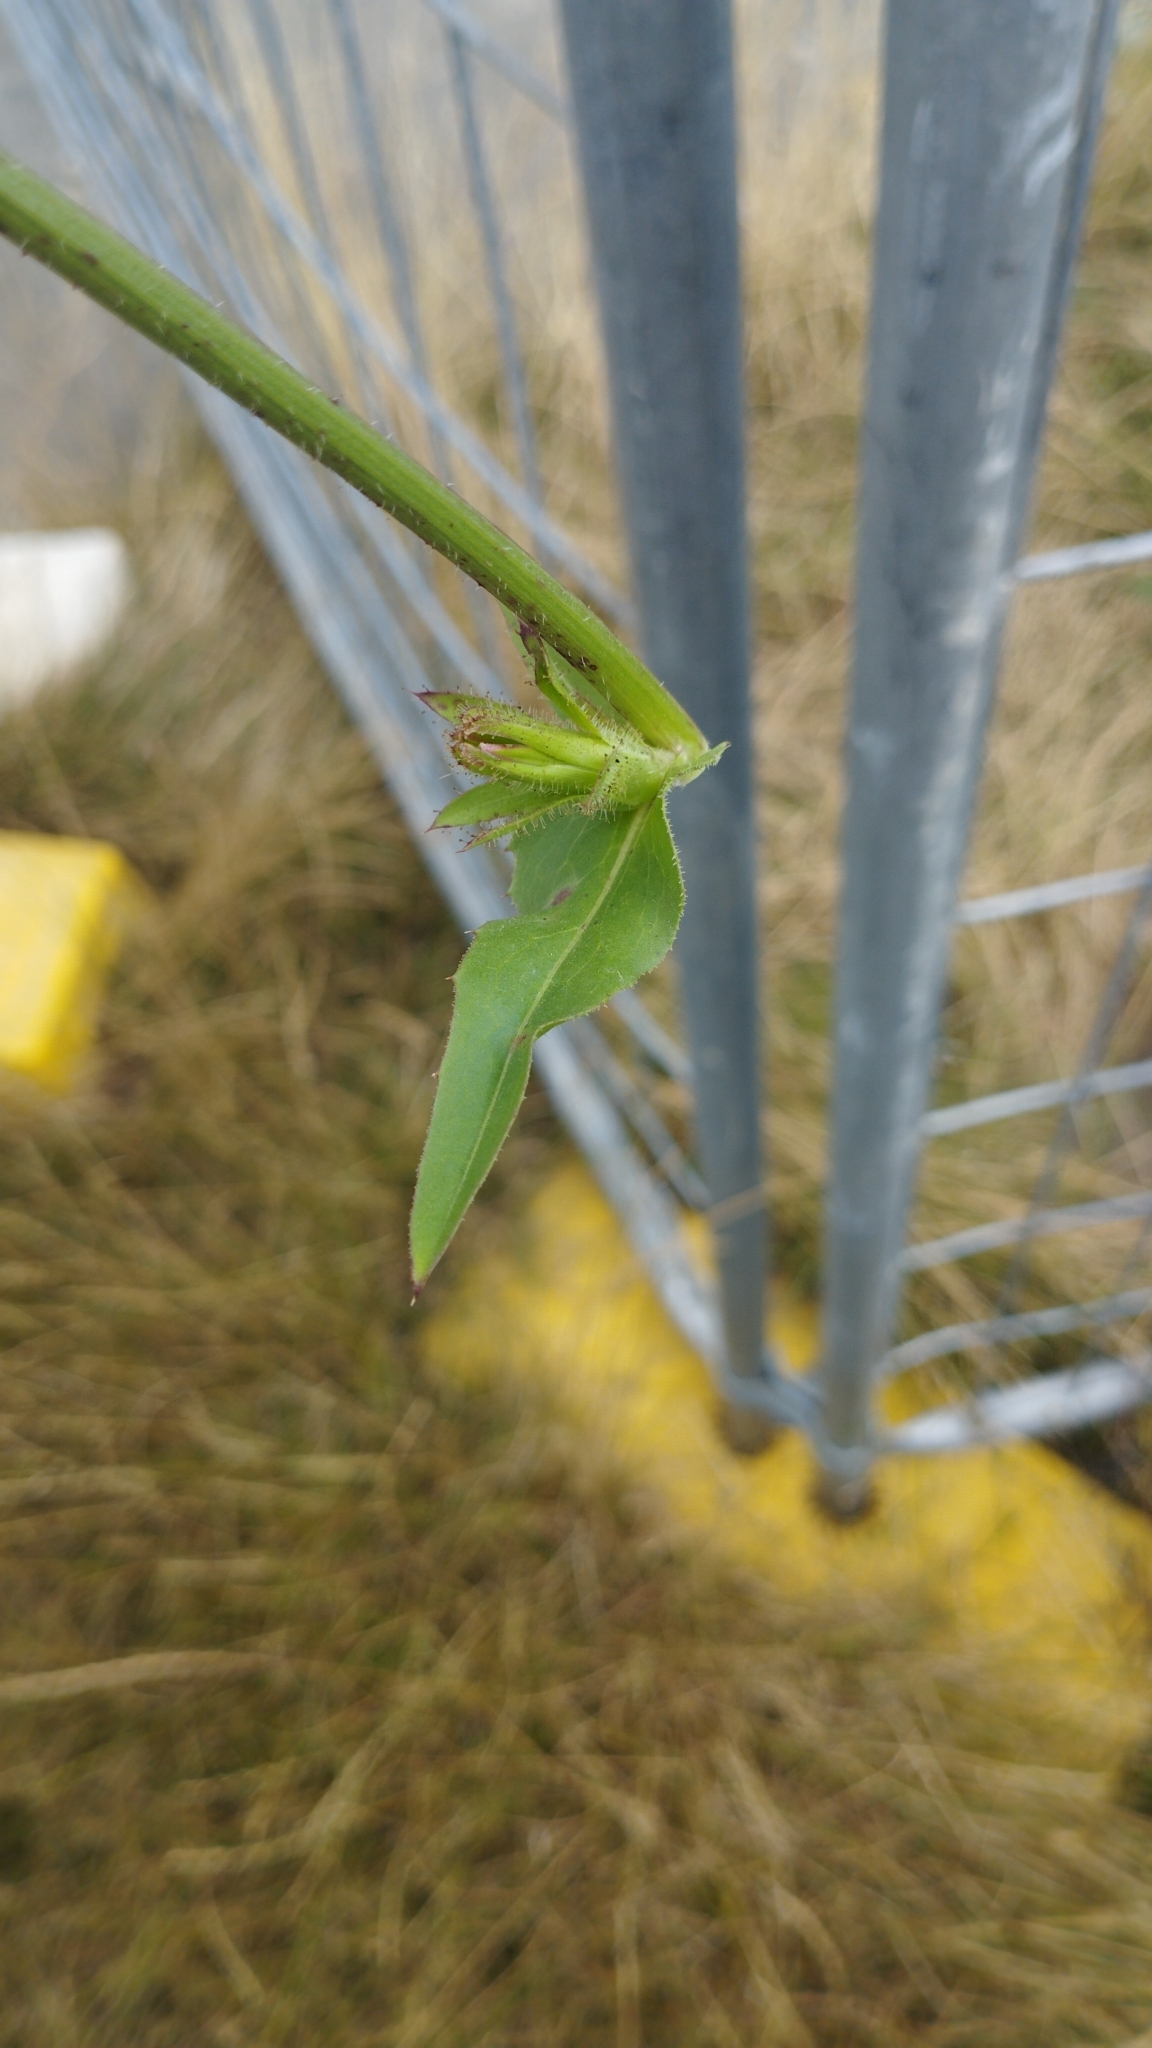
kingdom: Plantae
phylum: Tracheophyta
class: Magnoliopsida
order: Asterales
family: Asteraceae
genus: Cichorium
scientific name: Cichorium intybus
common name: Chicory
